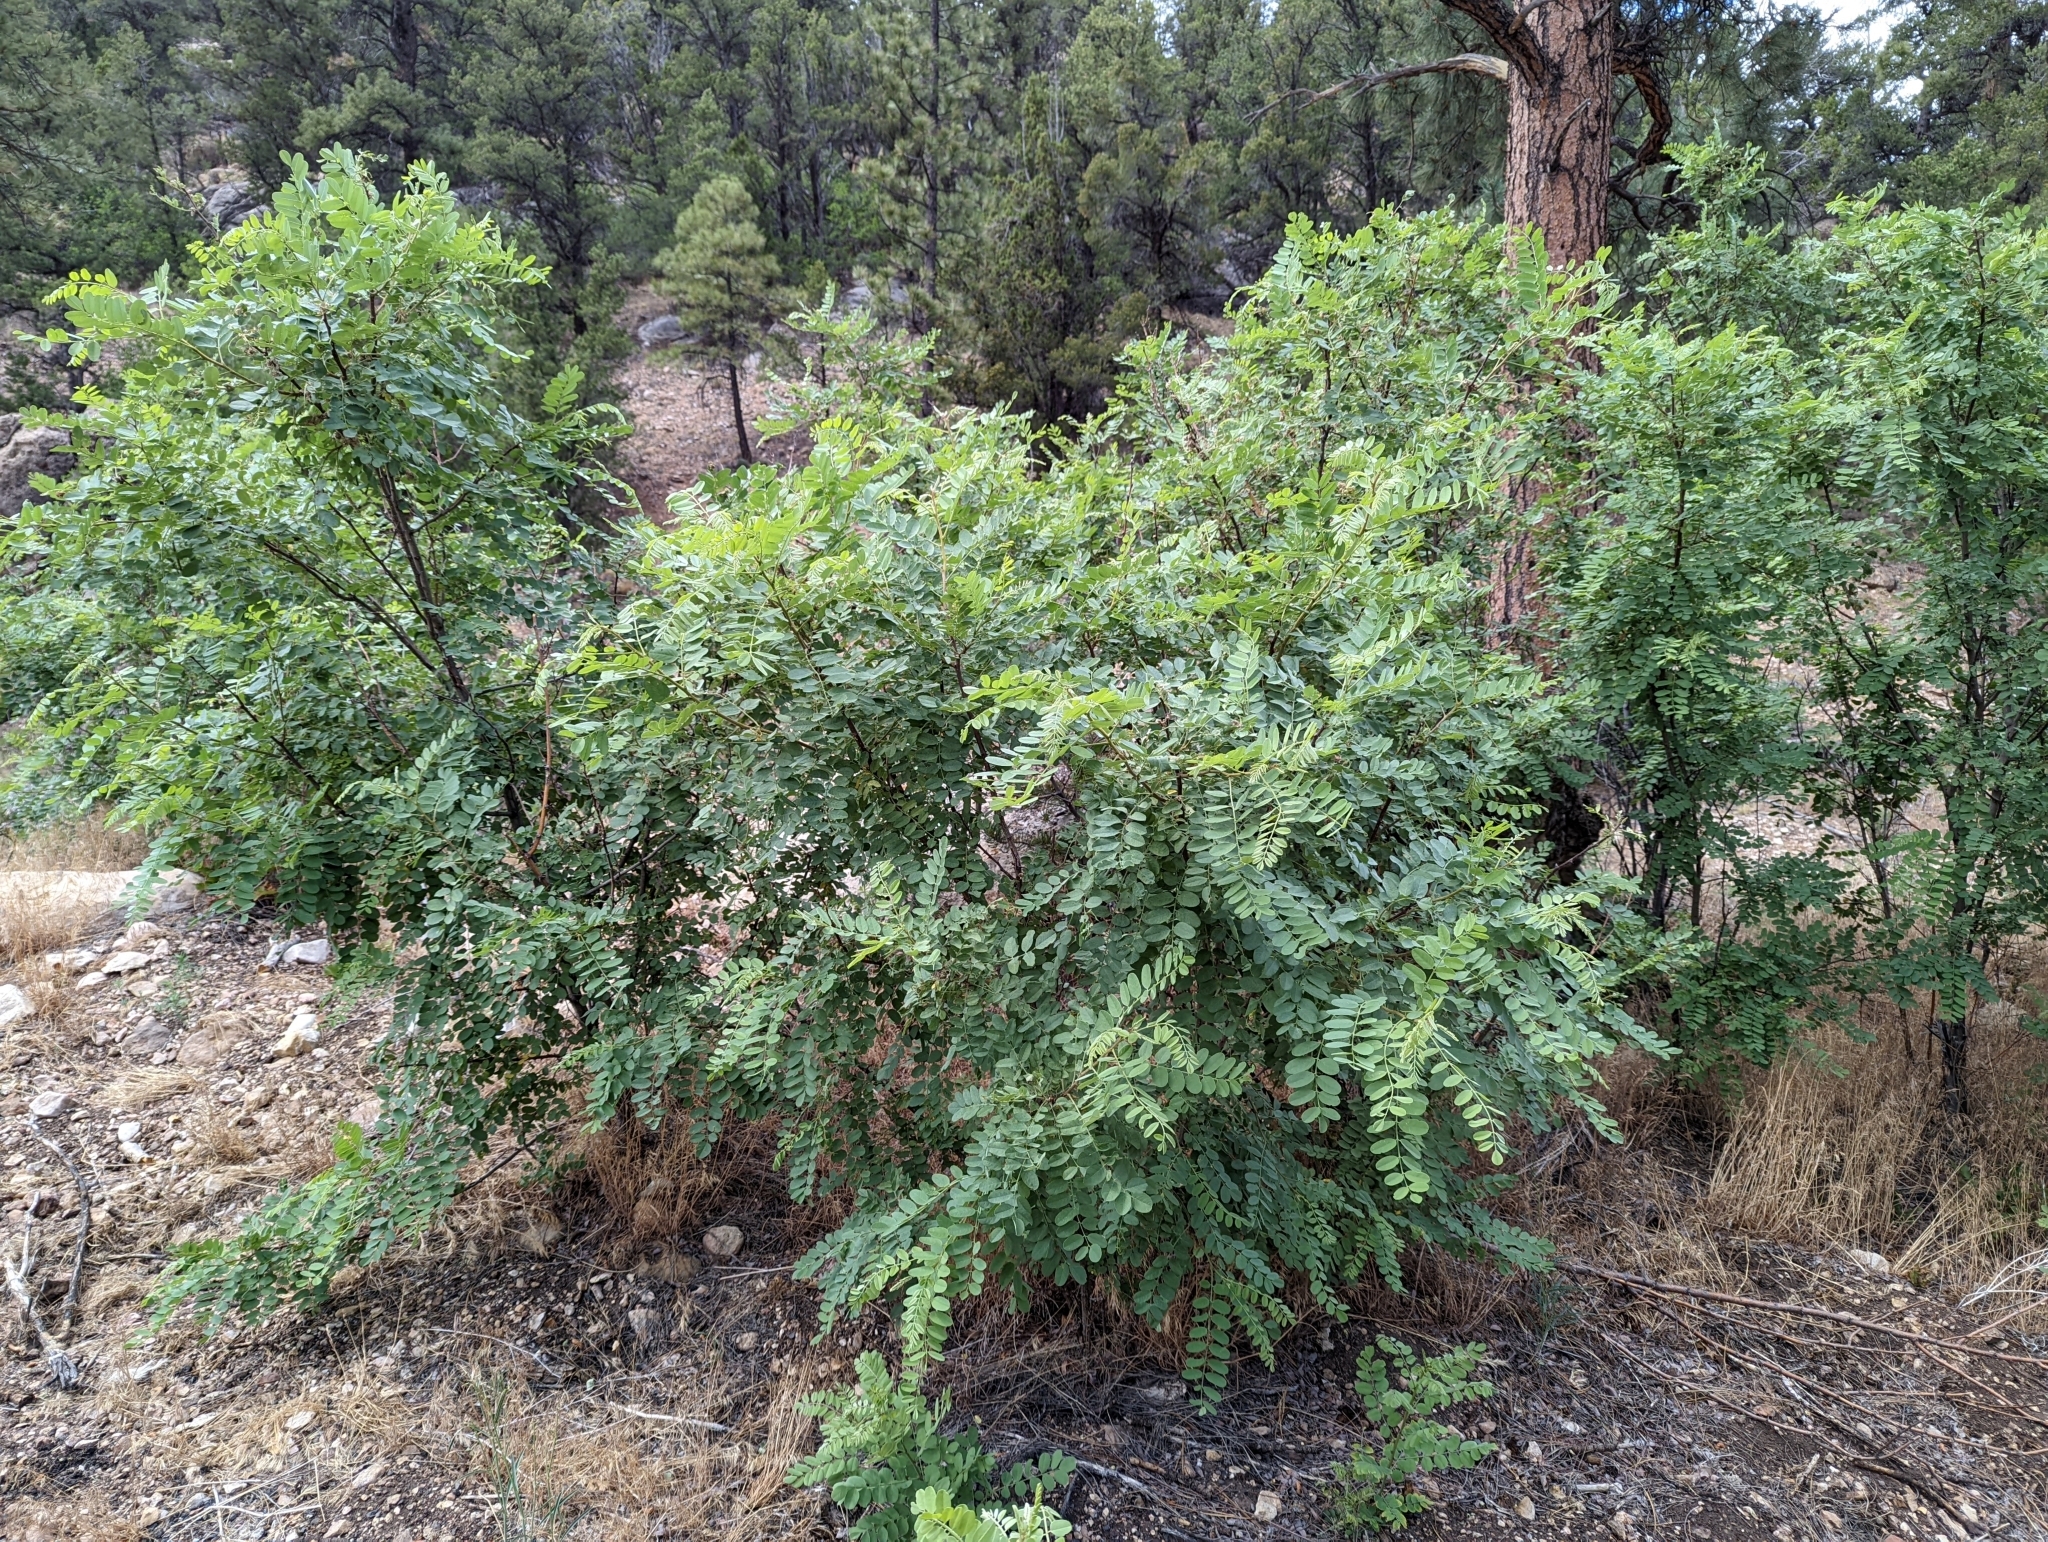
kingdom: Plantae
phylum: Tracheophyta
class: Magnoliopsida
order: Fabales
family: Fabaceae
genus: Robinia
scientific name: Robinia neomexicana
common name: New mexico locust
